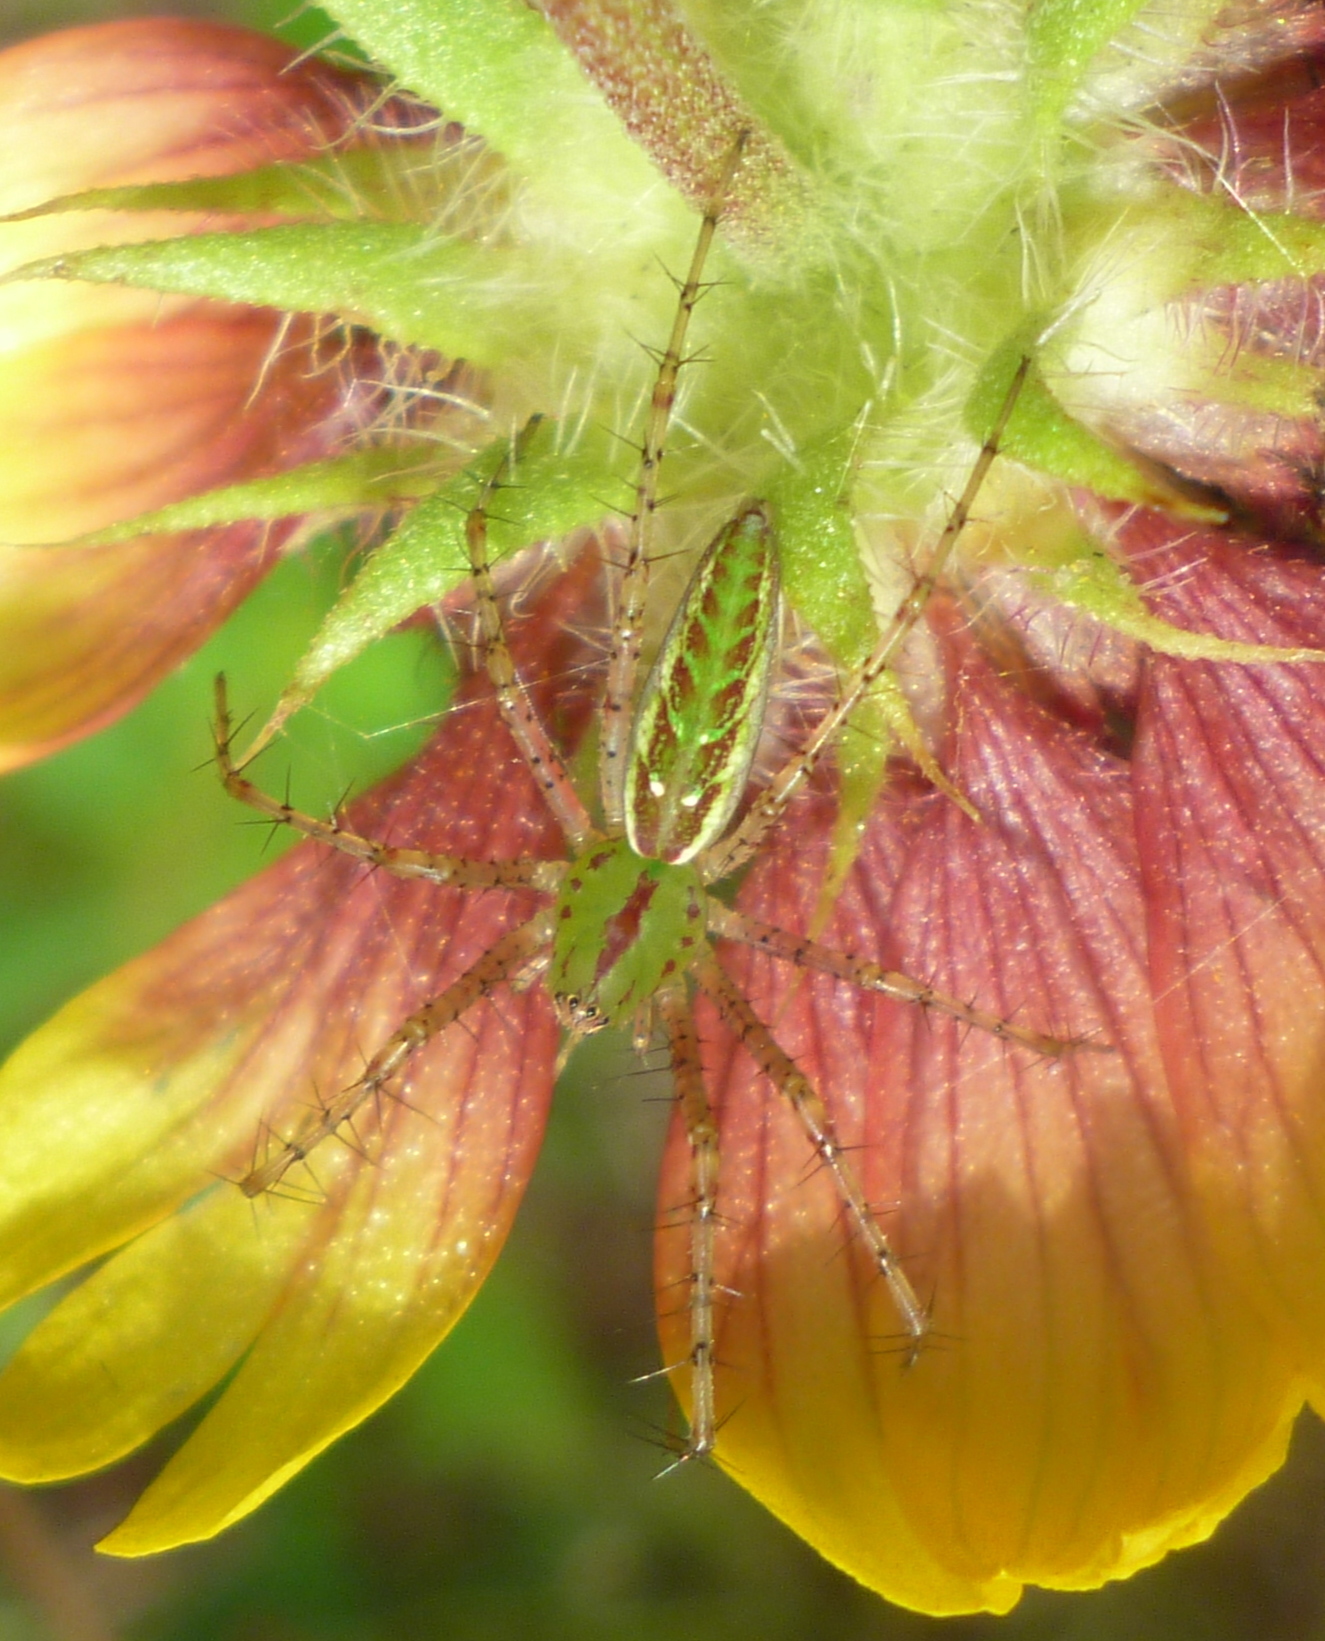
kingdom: Animalia
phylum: Arthropoda
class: Arachnida
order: Araneae
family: Oxyopidae
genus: Peucetia
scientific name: Peucetia viridans
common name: Lynx spiders
